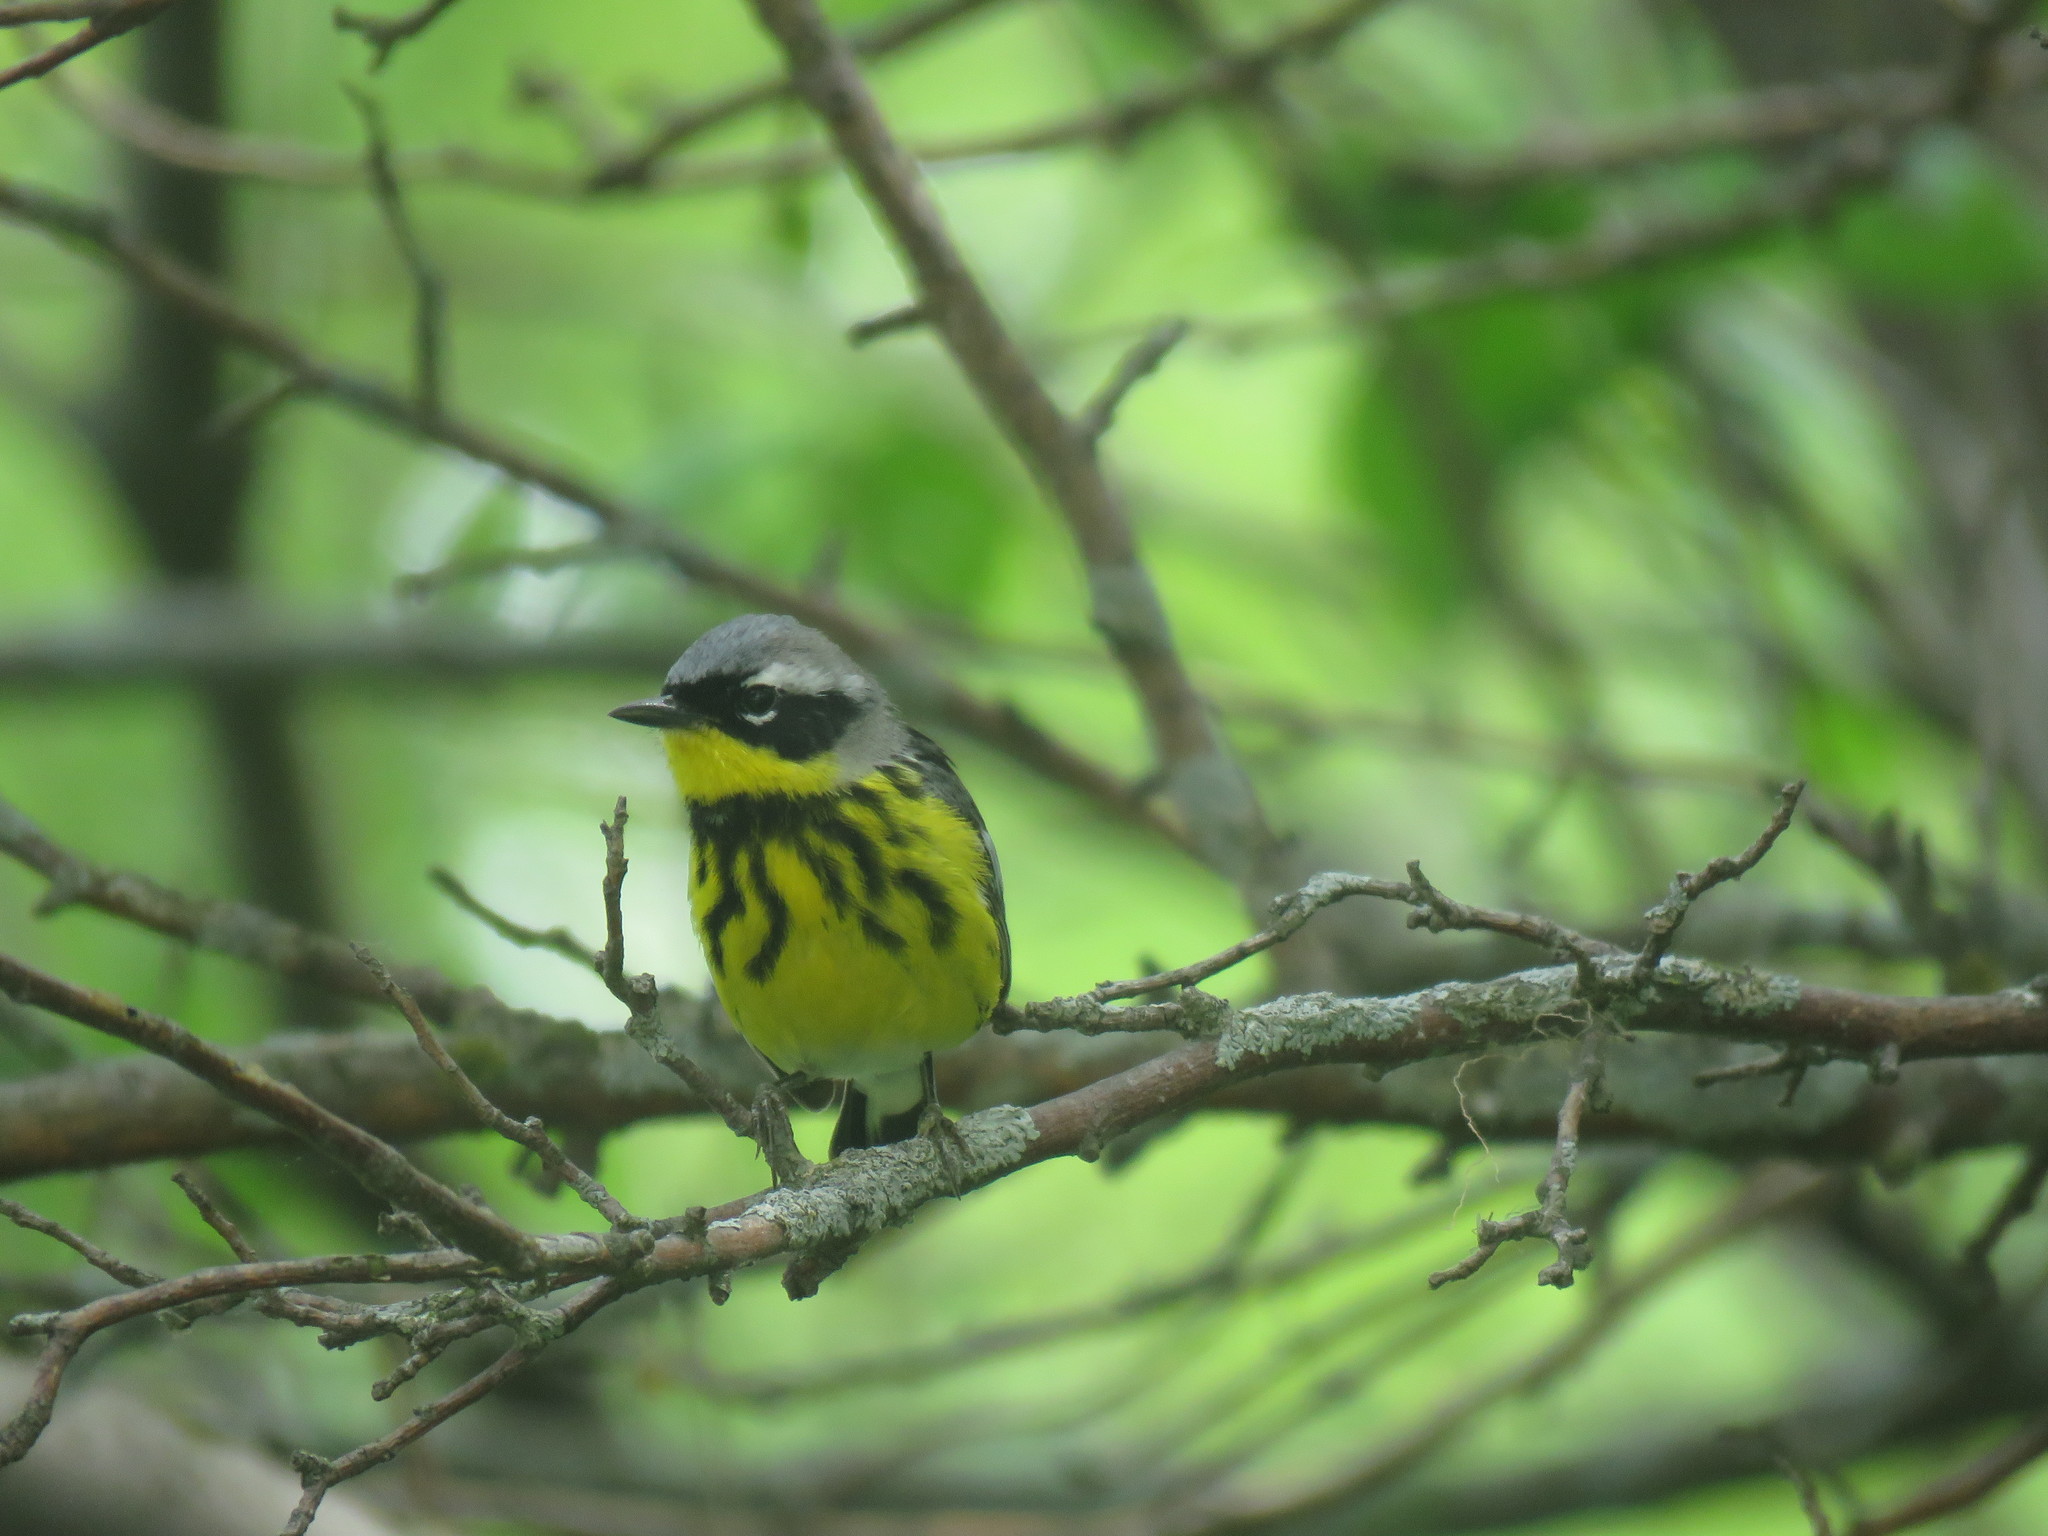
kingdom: Animalia
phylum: Chordata
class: Aves
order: Passeriformes
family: Parulidae
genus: Setophaga
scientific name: Setophaga magnolia
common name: Magnolia warbler
